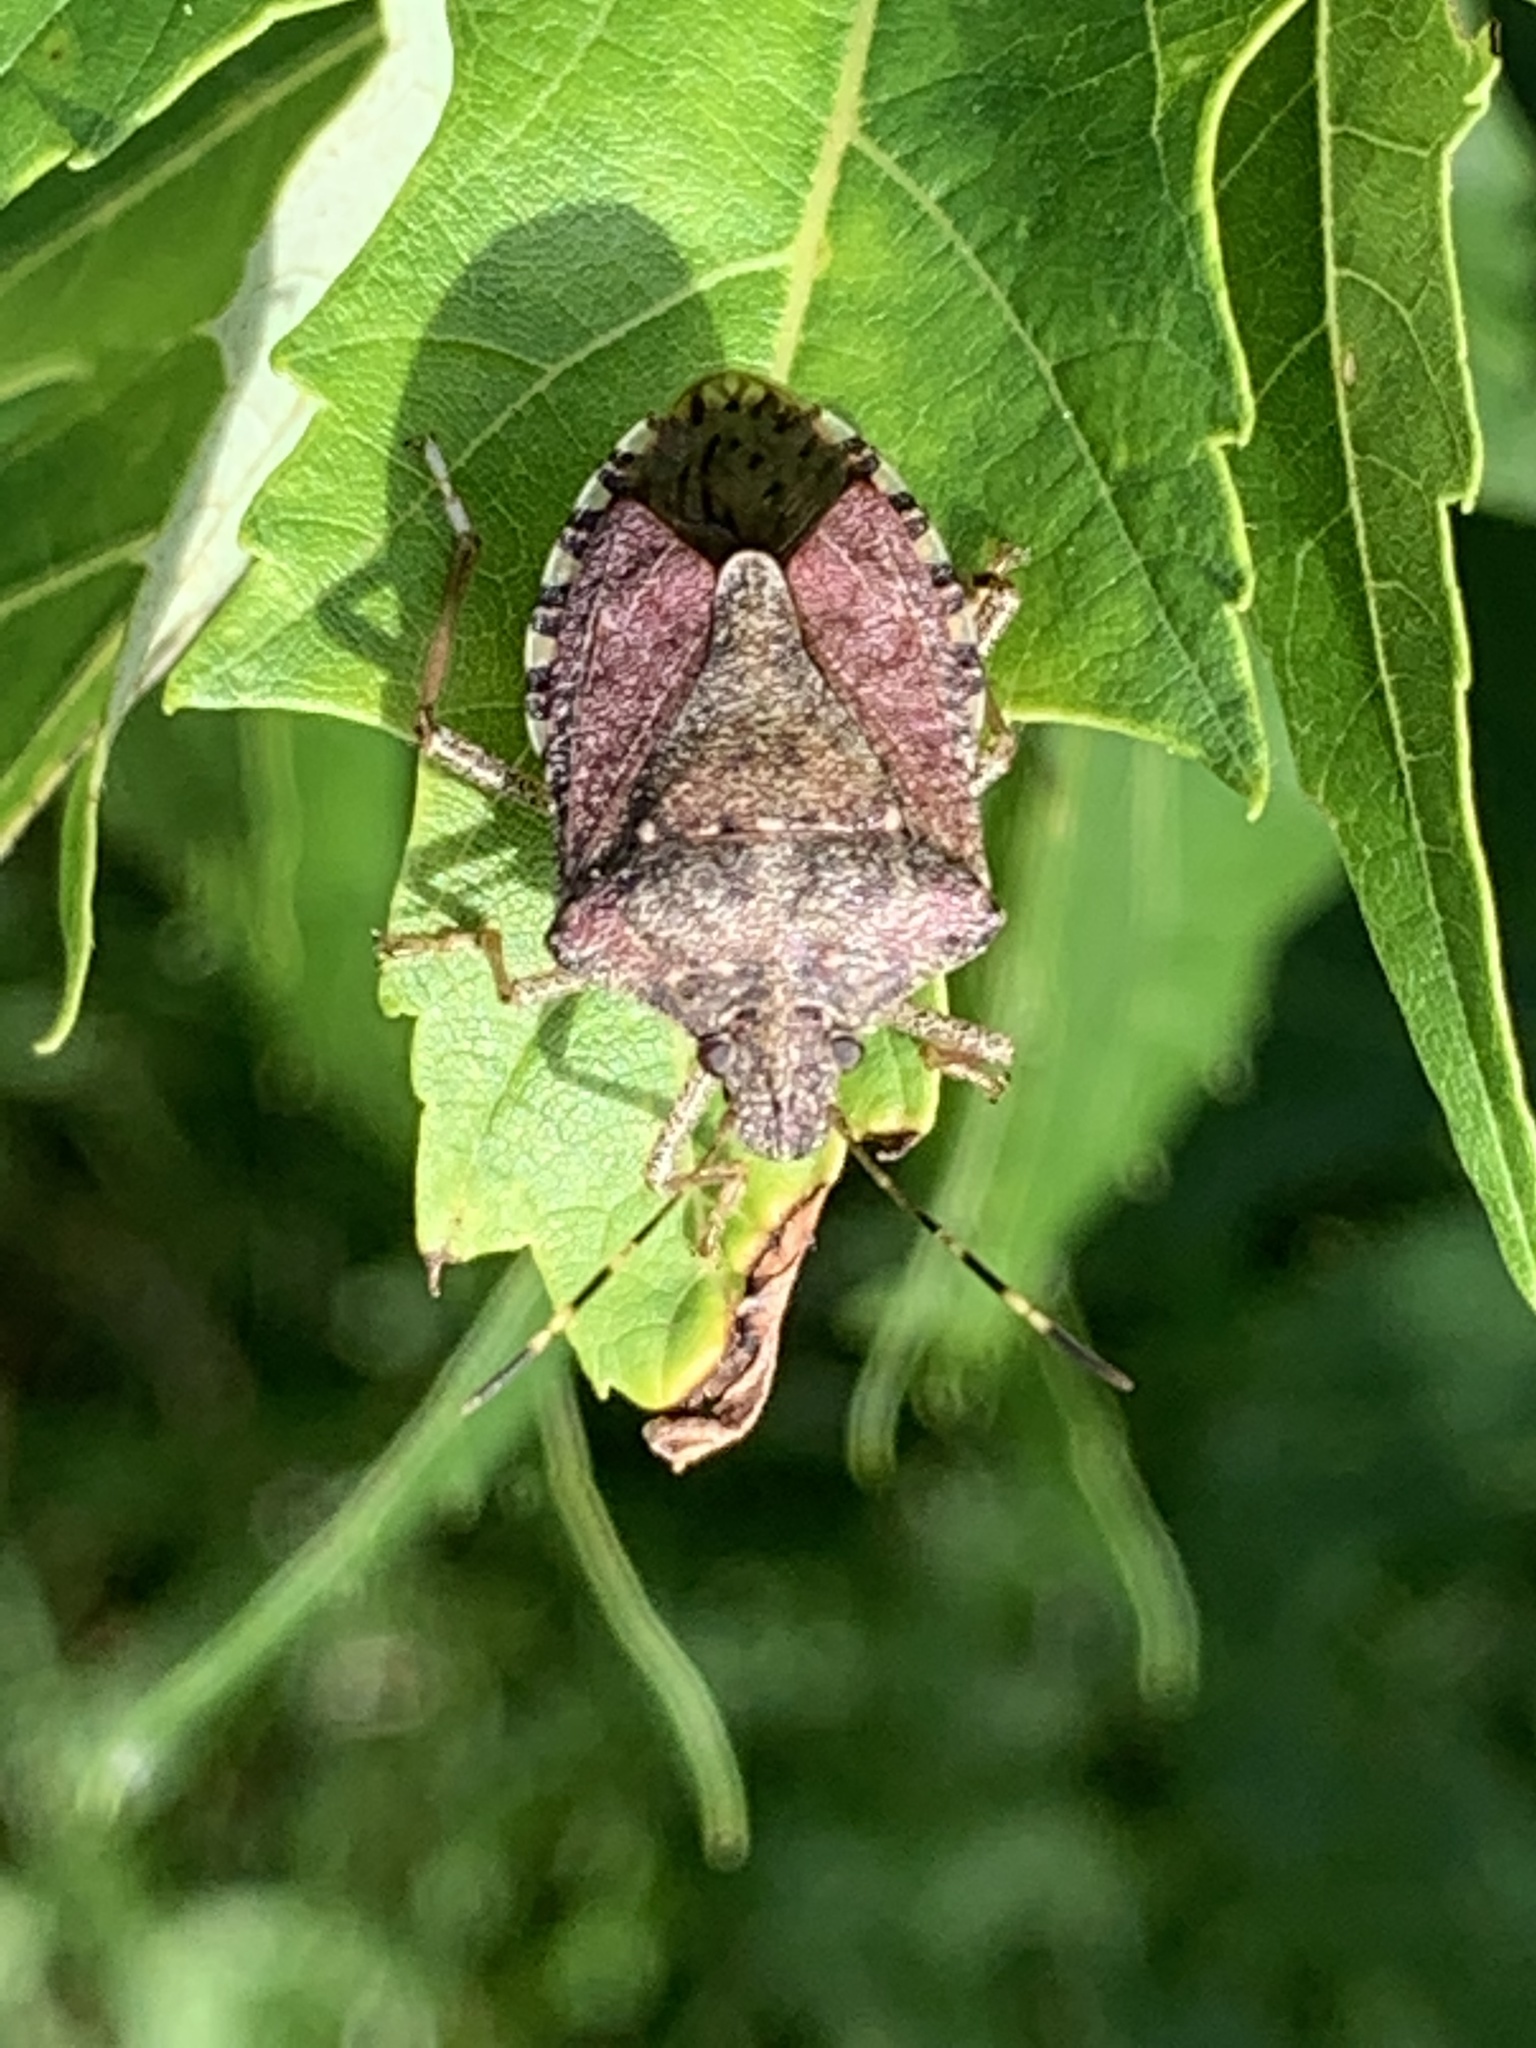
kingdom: Animalia
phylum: Arthropoda
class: Insecta
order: Hemiptera
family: Pentatomidae
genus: Halyomorpha
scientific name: Halyomorpha halys
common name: Brown marmorated stink bug
